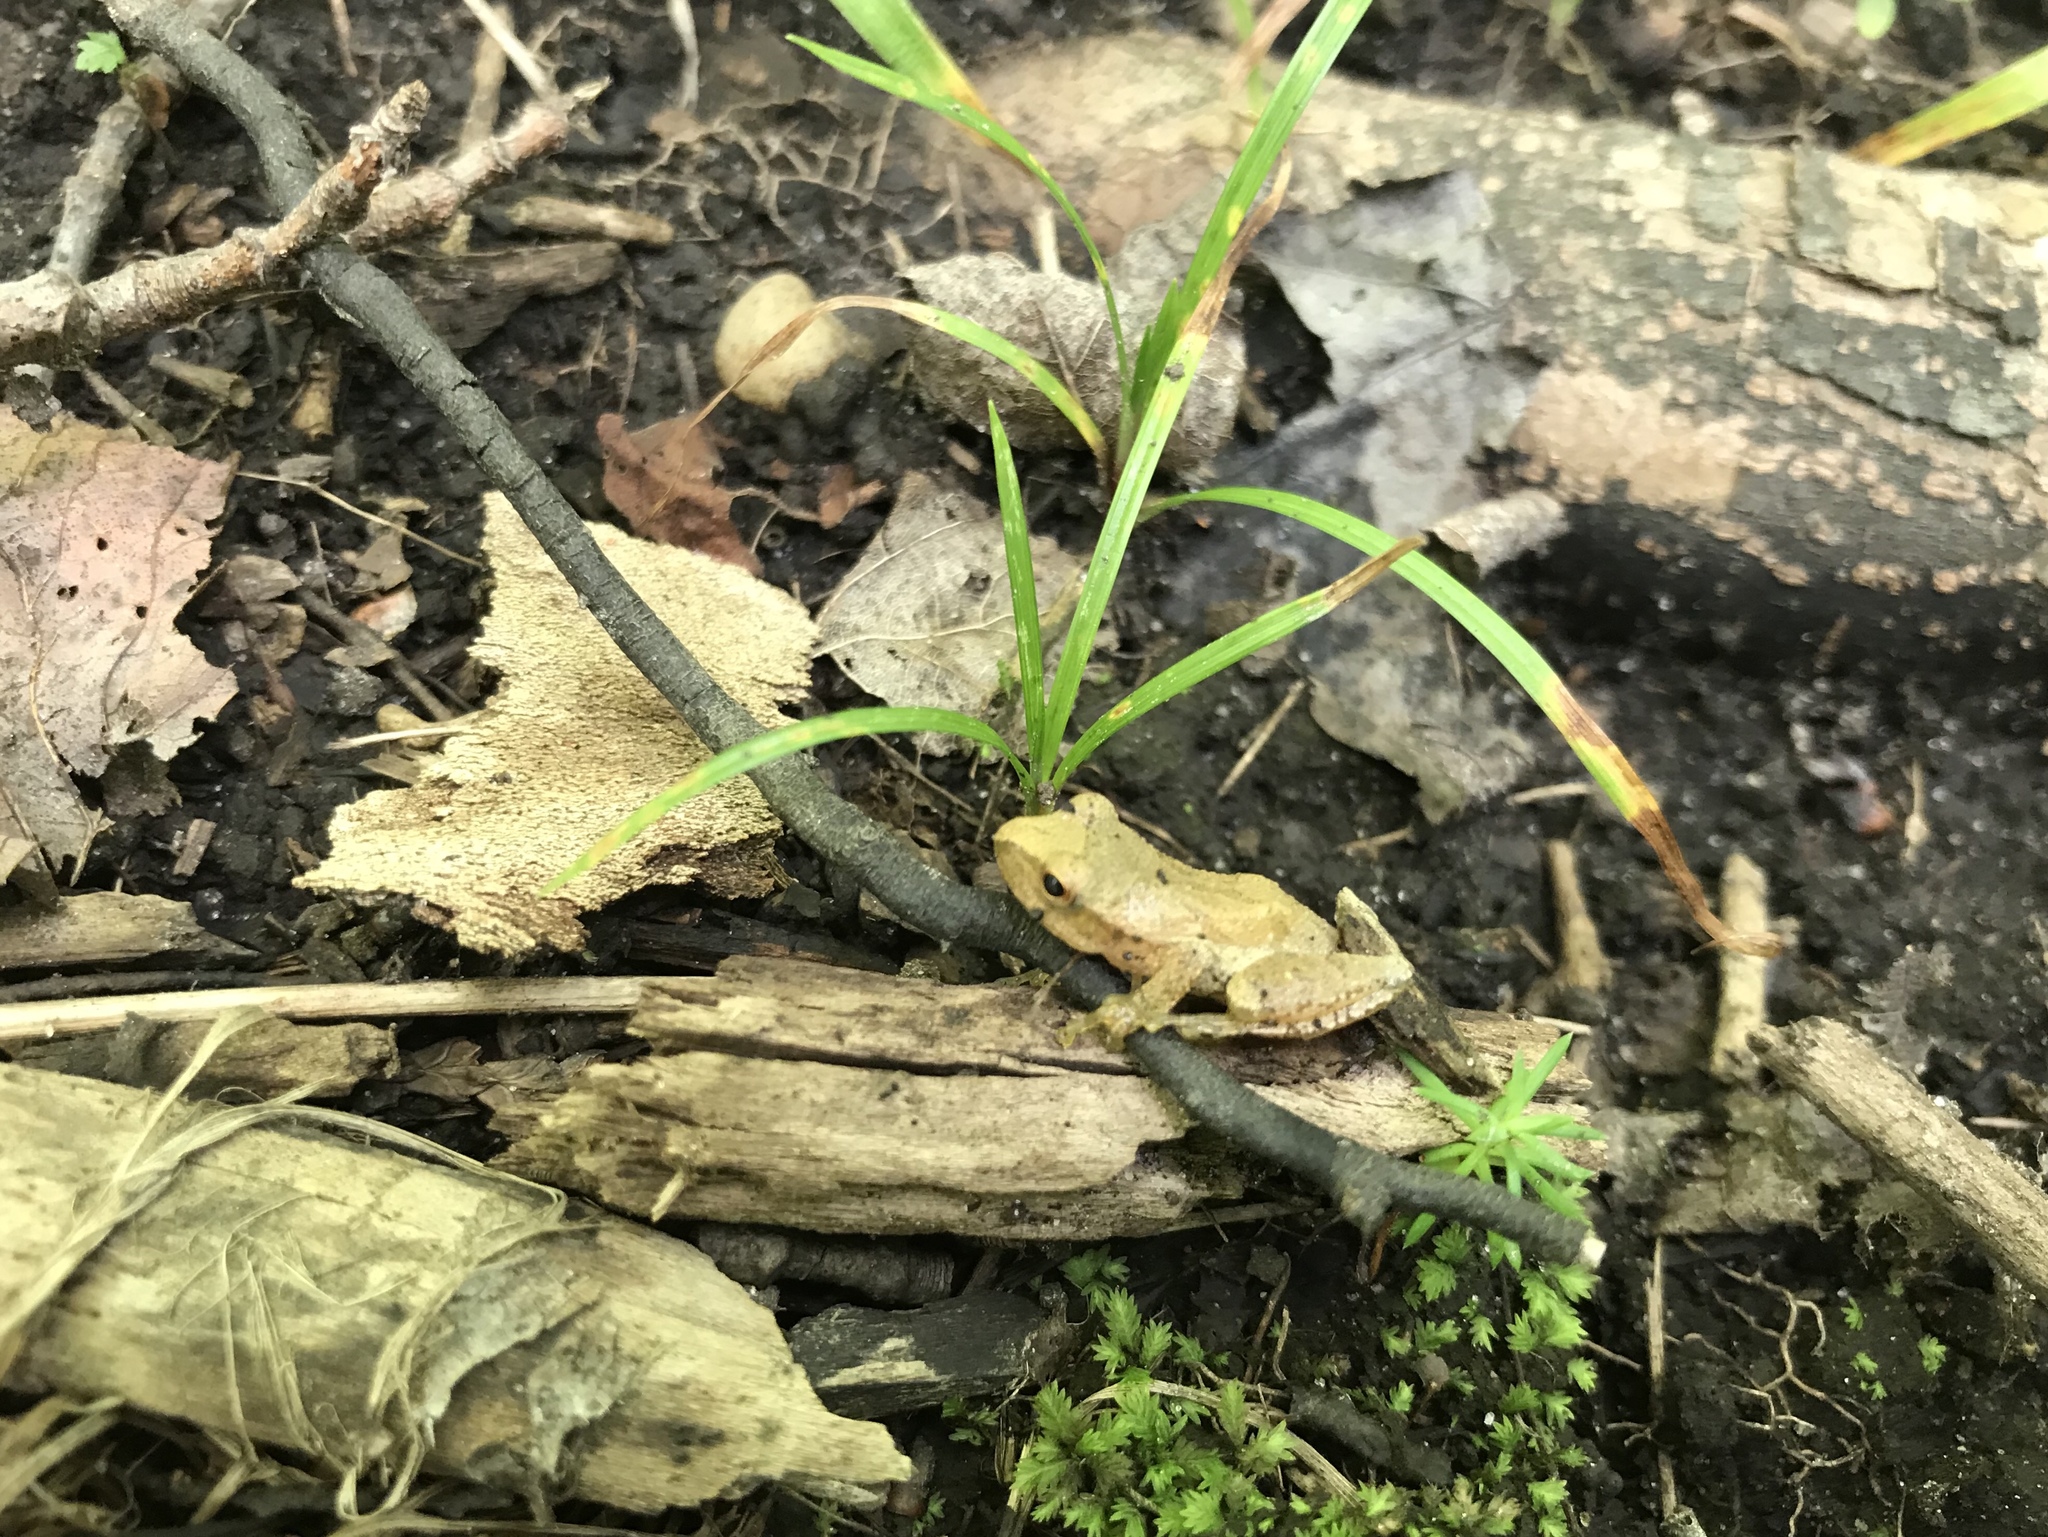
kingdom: Animalia
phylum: Chordata
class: Amphibia
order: Anura
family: Hylidae
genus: Pseudacris
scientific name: Pseudacris crucifer
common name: Spring peeper
